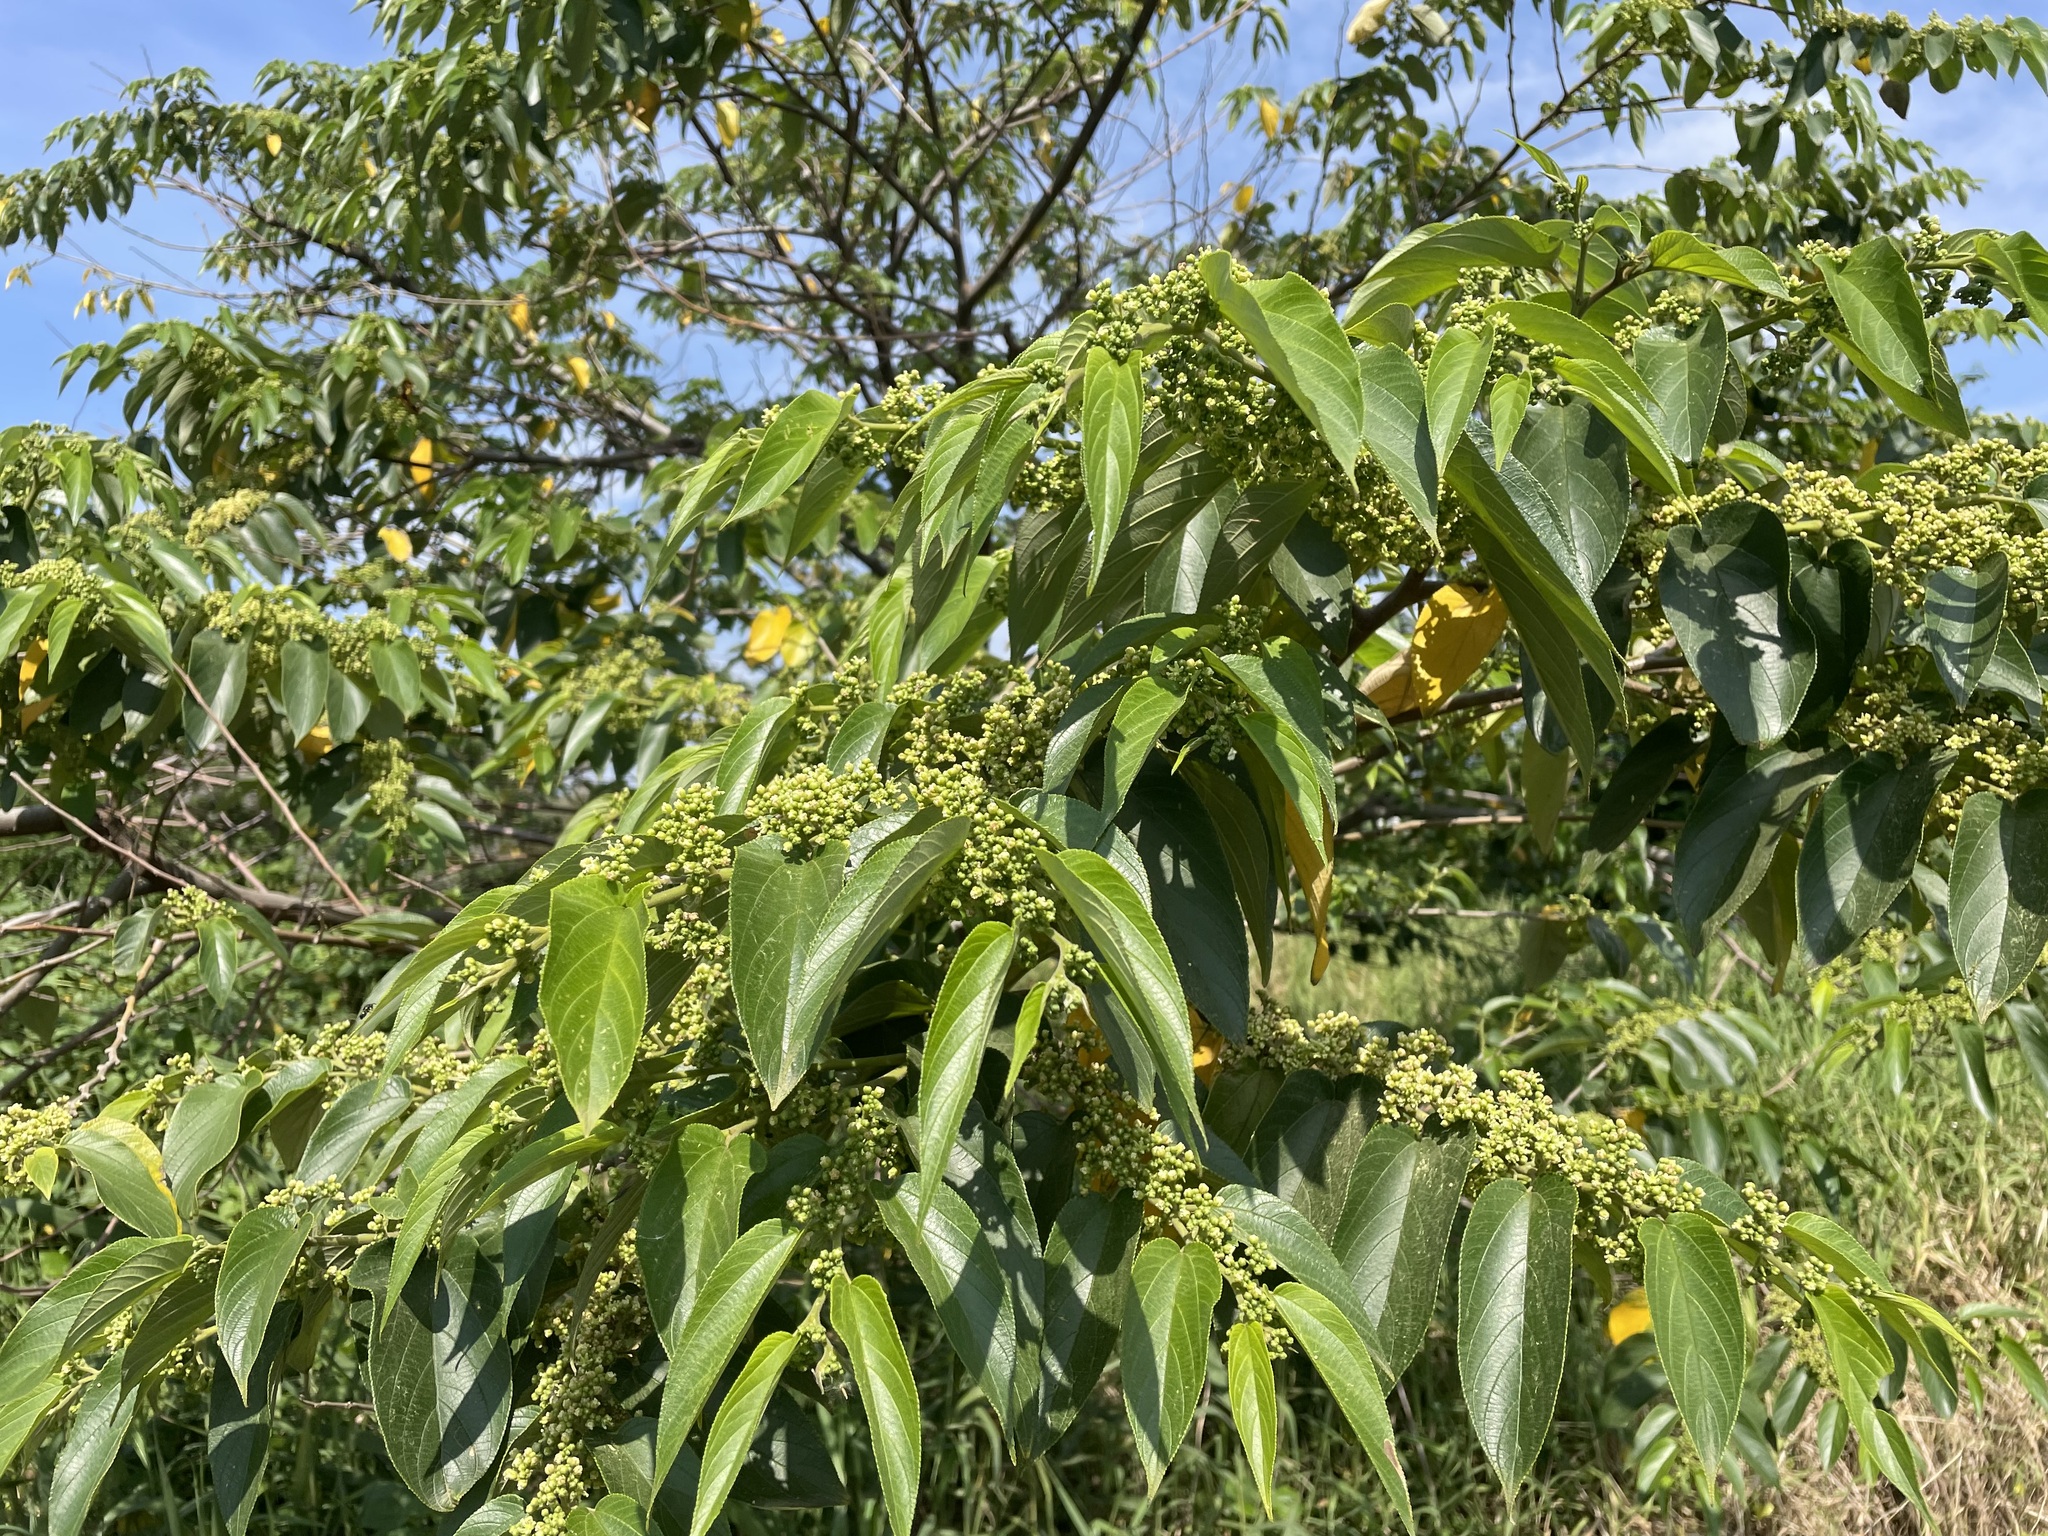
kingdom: Plantae
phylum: Tracheophyta
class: Magnoliopsida
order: Rosales
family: Cannabaceae
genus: Trema
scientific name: Trema orientale
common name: Indian charcoal tree
